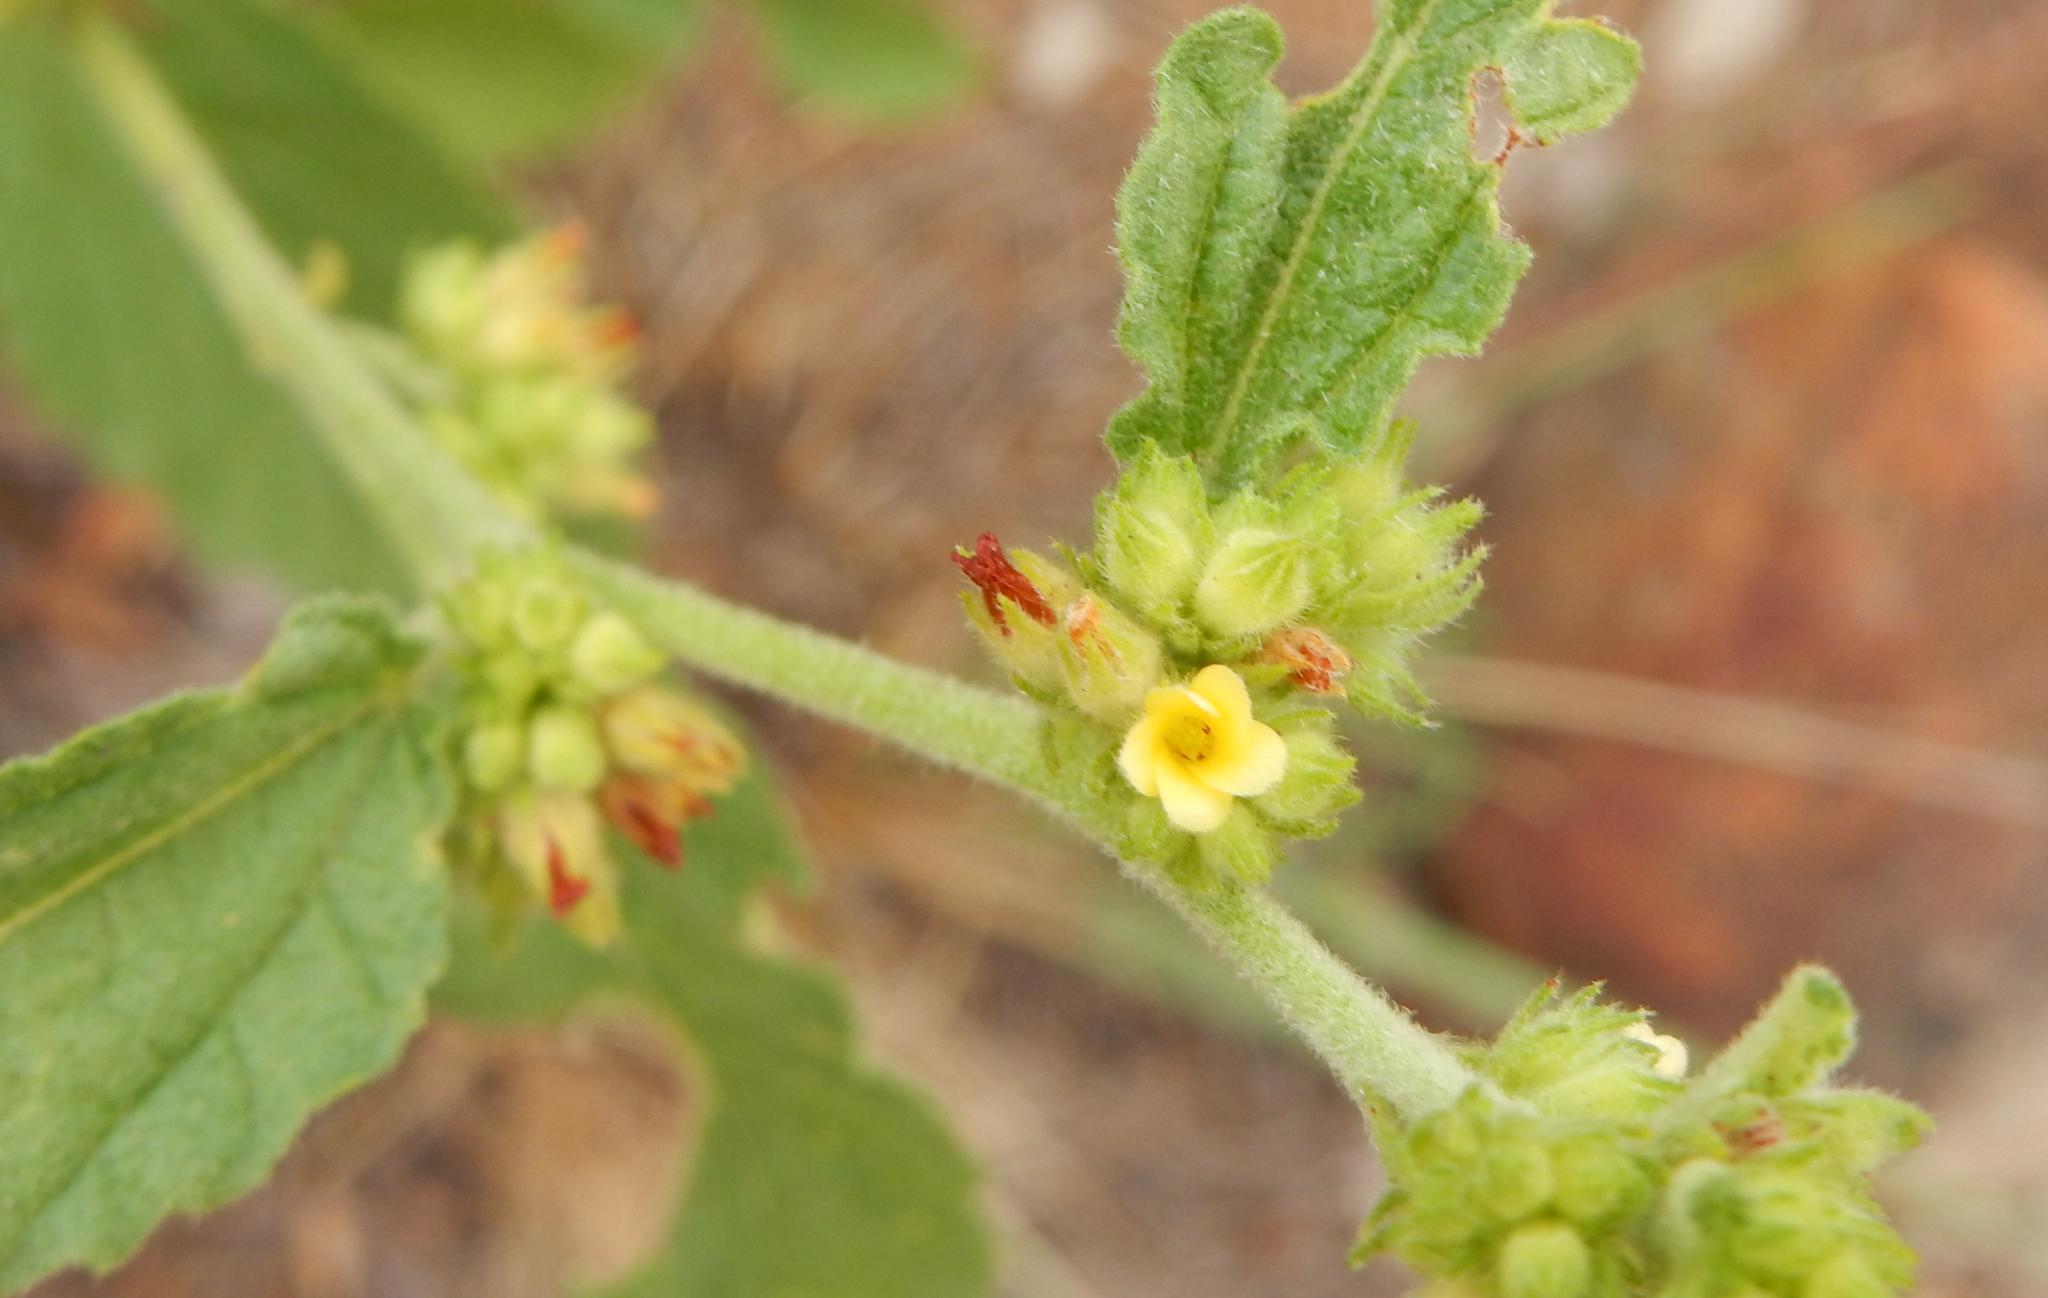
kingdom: Plantae
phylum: Tracheophyta
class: Magnoliopsida
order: Malvales
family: Malvaceae
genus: Waltheria
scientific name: Waltheria indica
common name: Leather-coat
